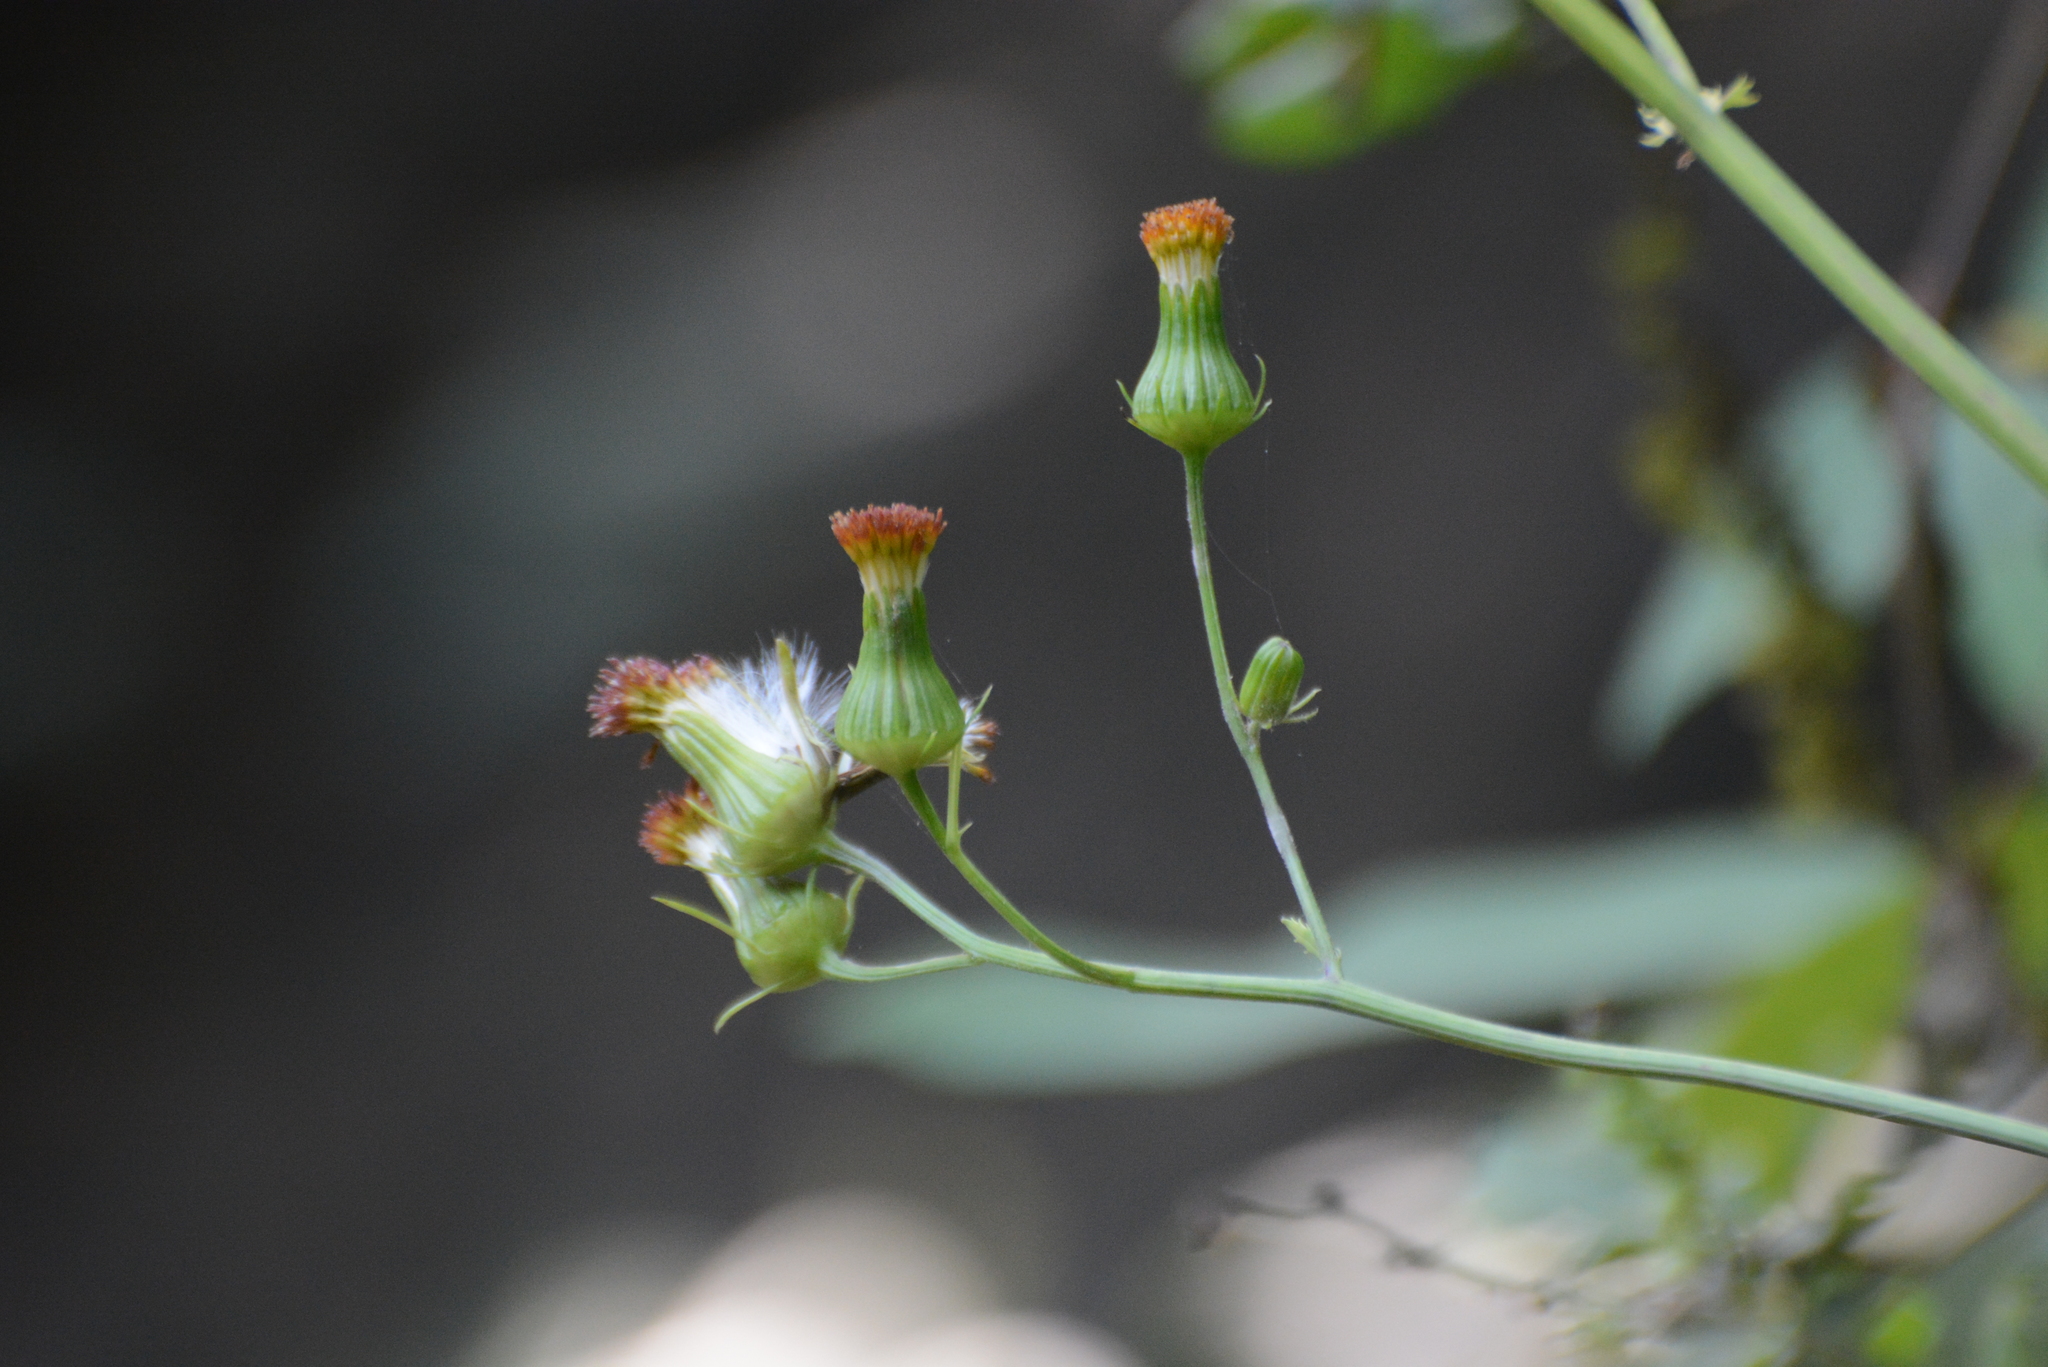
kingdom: Plantae
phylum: Tracheophyta
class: Magnoliopsida
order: Asterales
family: Asteraceae
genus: Crassocephalum
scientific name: Crassocephalum crepidioides
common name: Redflower ragleaf
